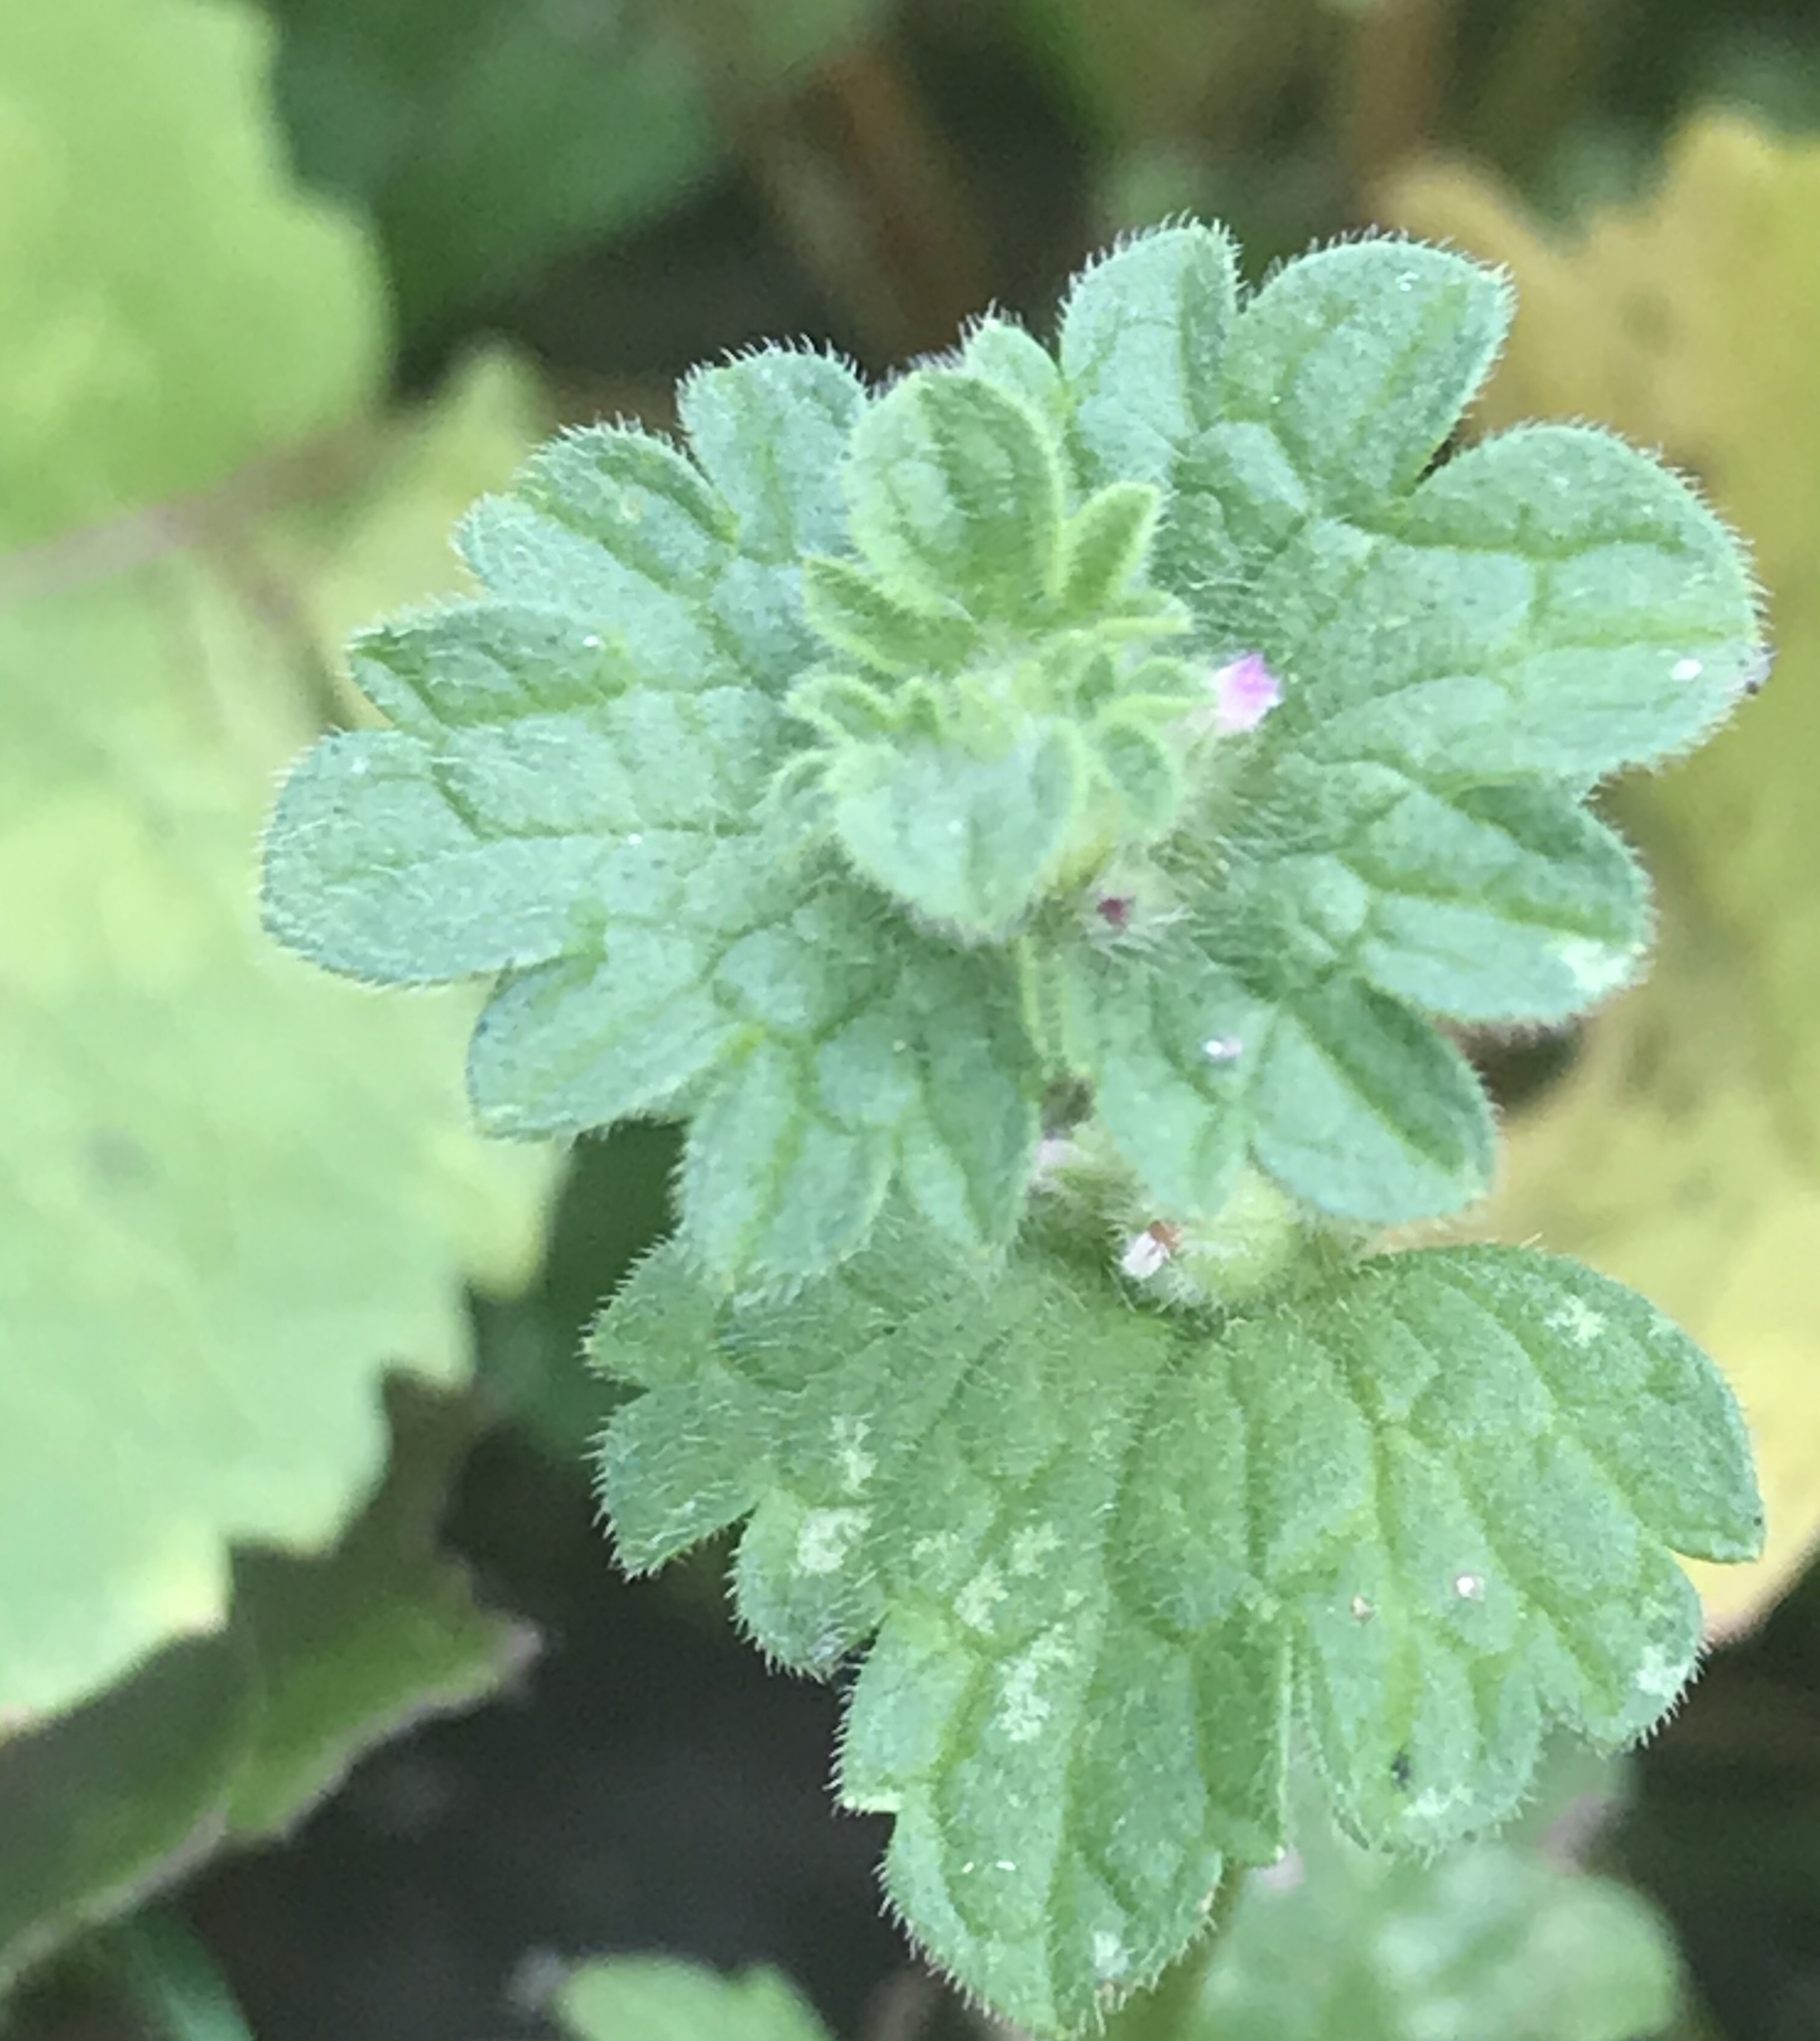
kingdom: Plantae
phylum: Tracheophyta
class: Magnoliopsida
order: Lamiales
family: Lamiaceae
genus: Lamium
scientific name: Lamium amplexicaule
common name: Henbit dead-nettle
